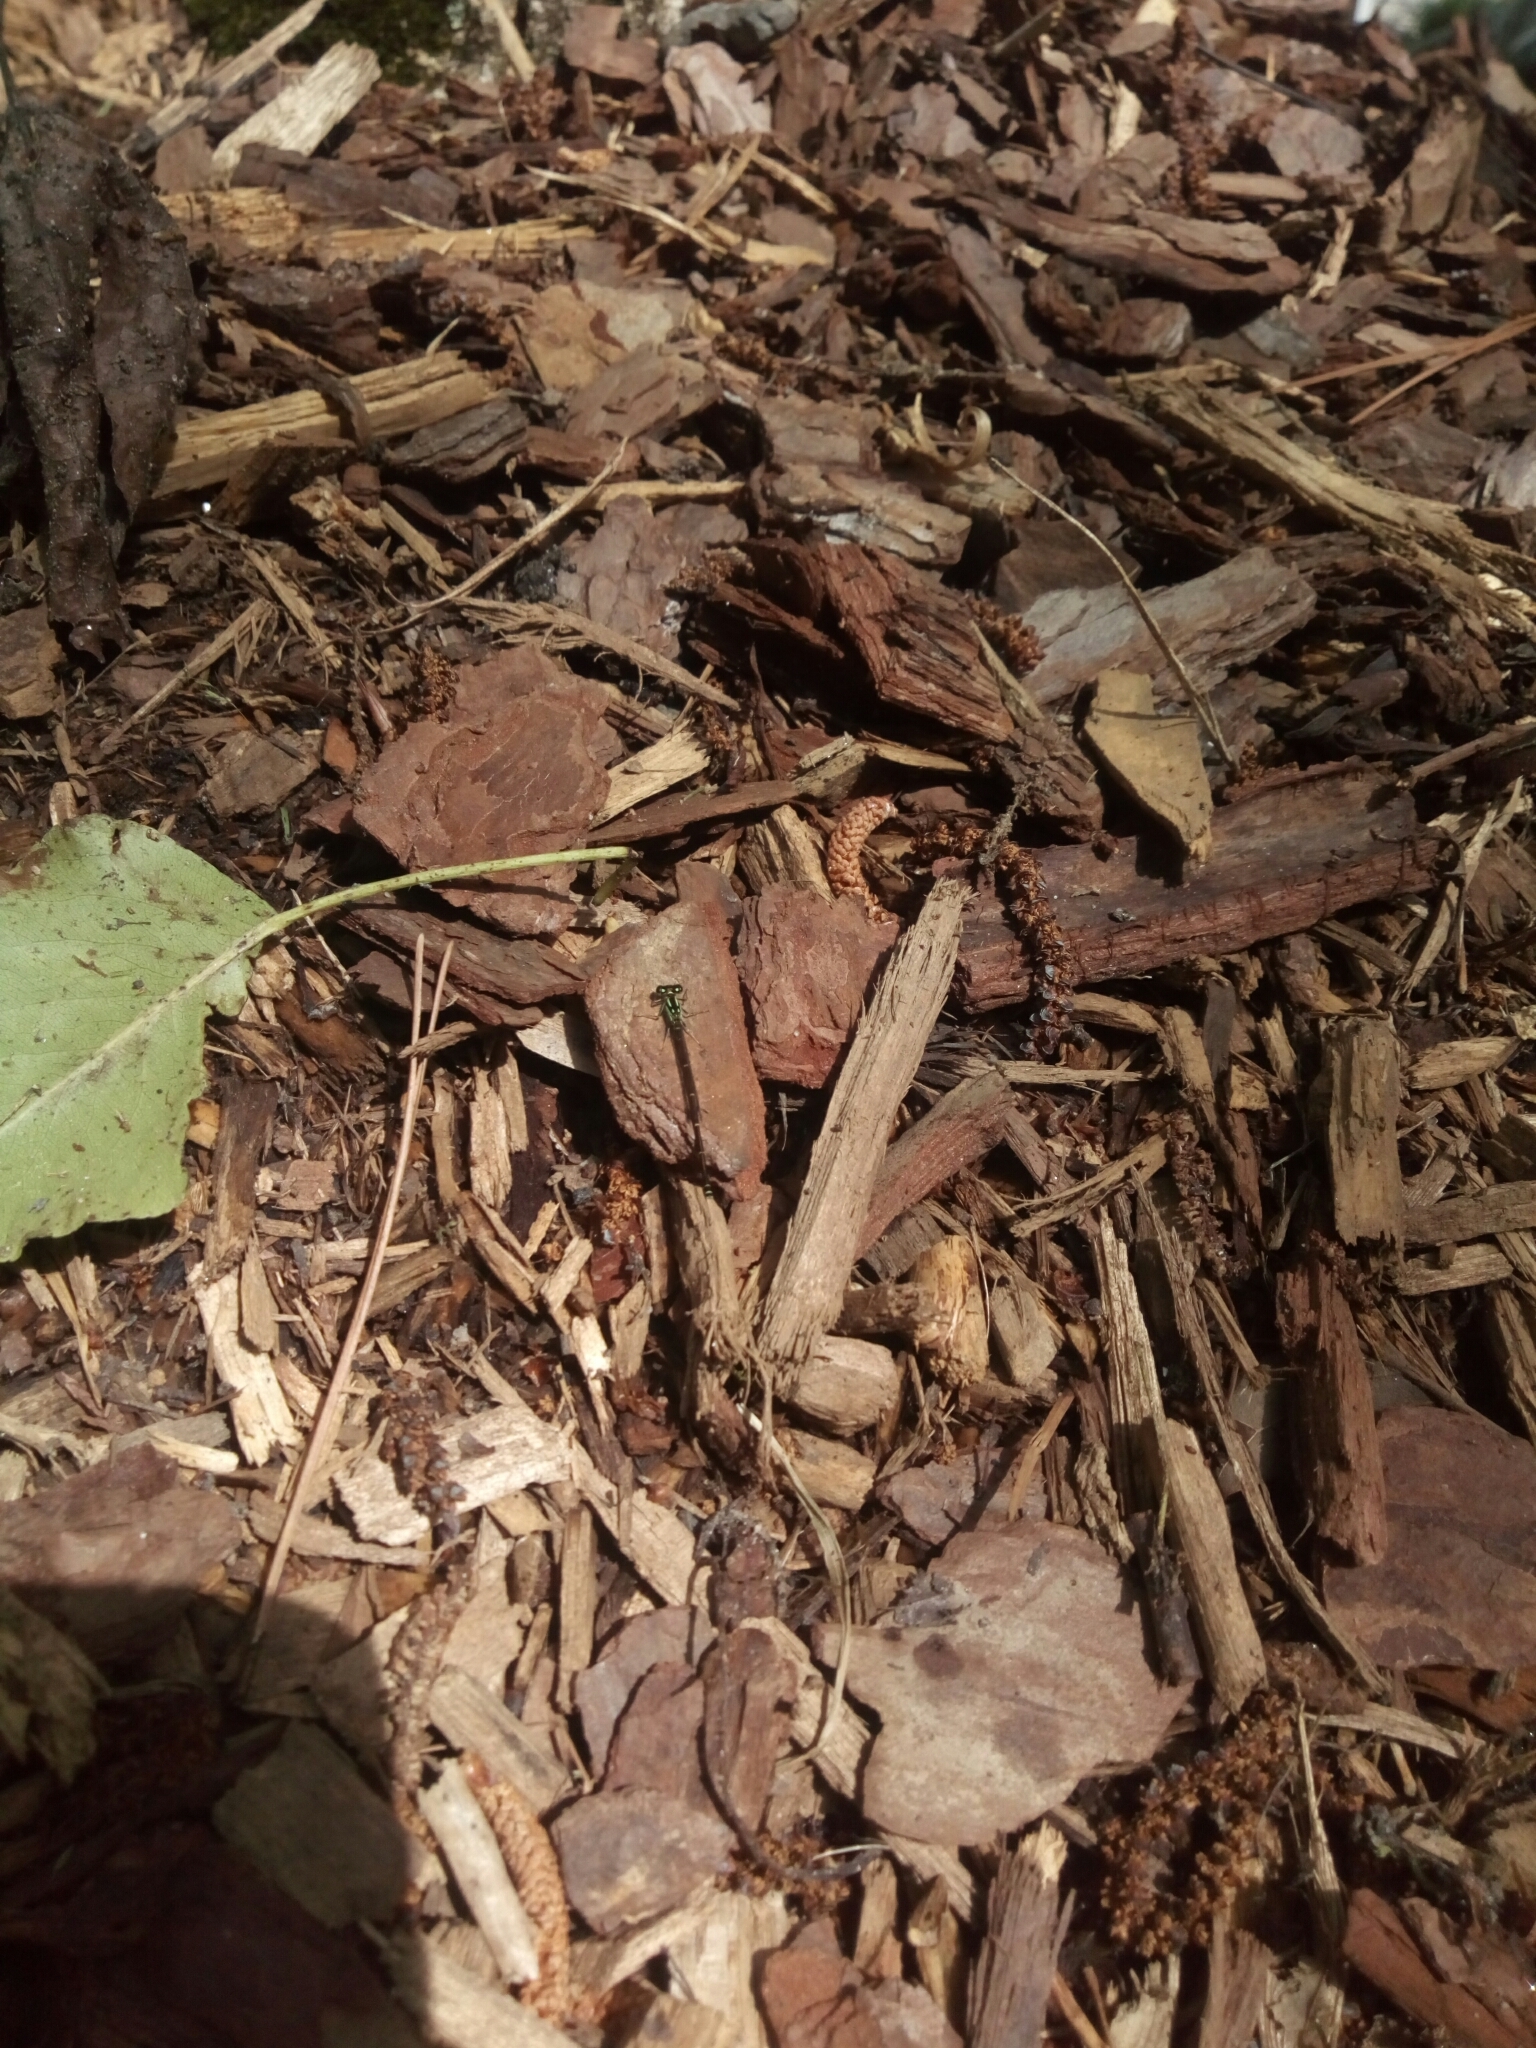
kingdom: Animalia
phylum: Arthropoda
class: Insecta
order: Odonata
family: Coenagrionidae
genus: Ischnura
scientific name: Ischnura posita
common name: Fragile forktail
